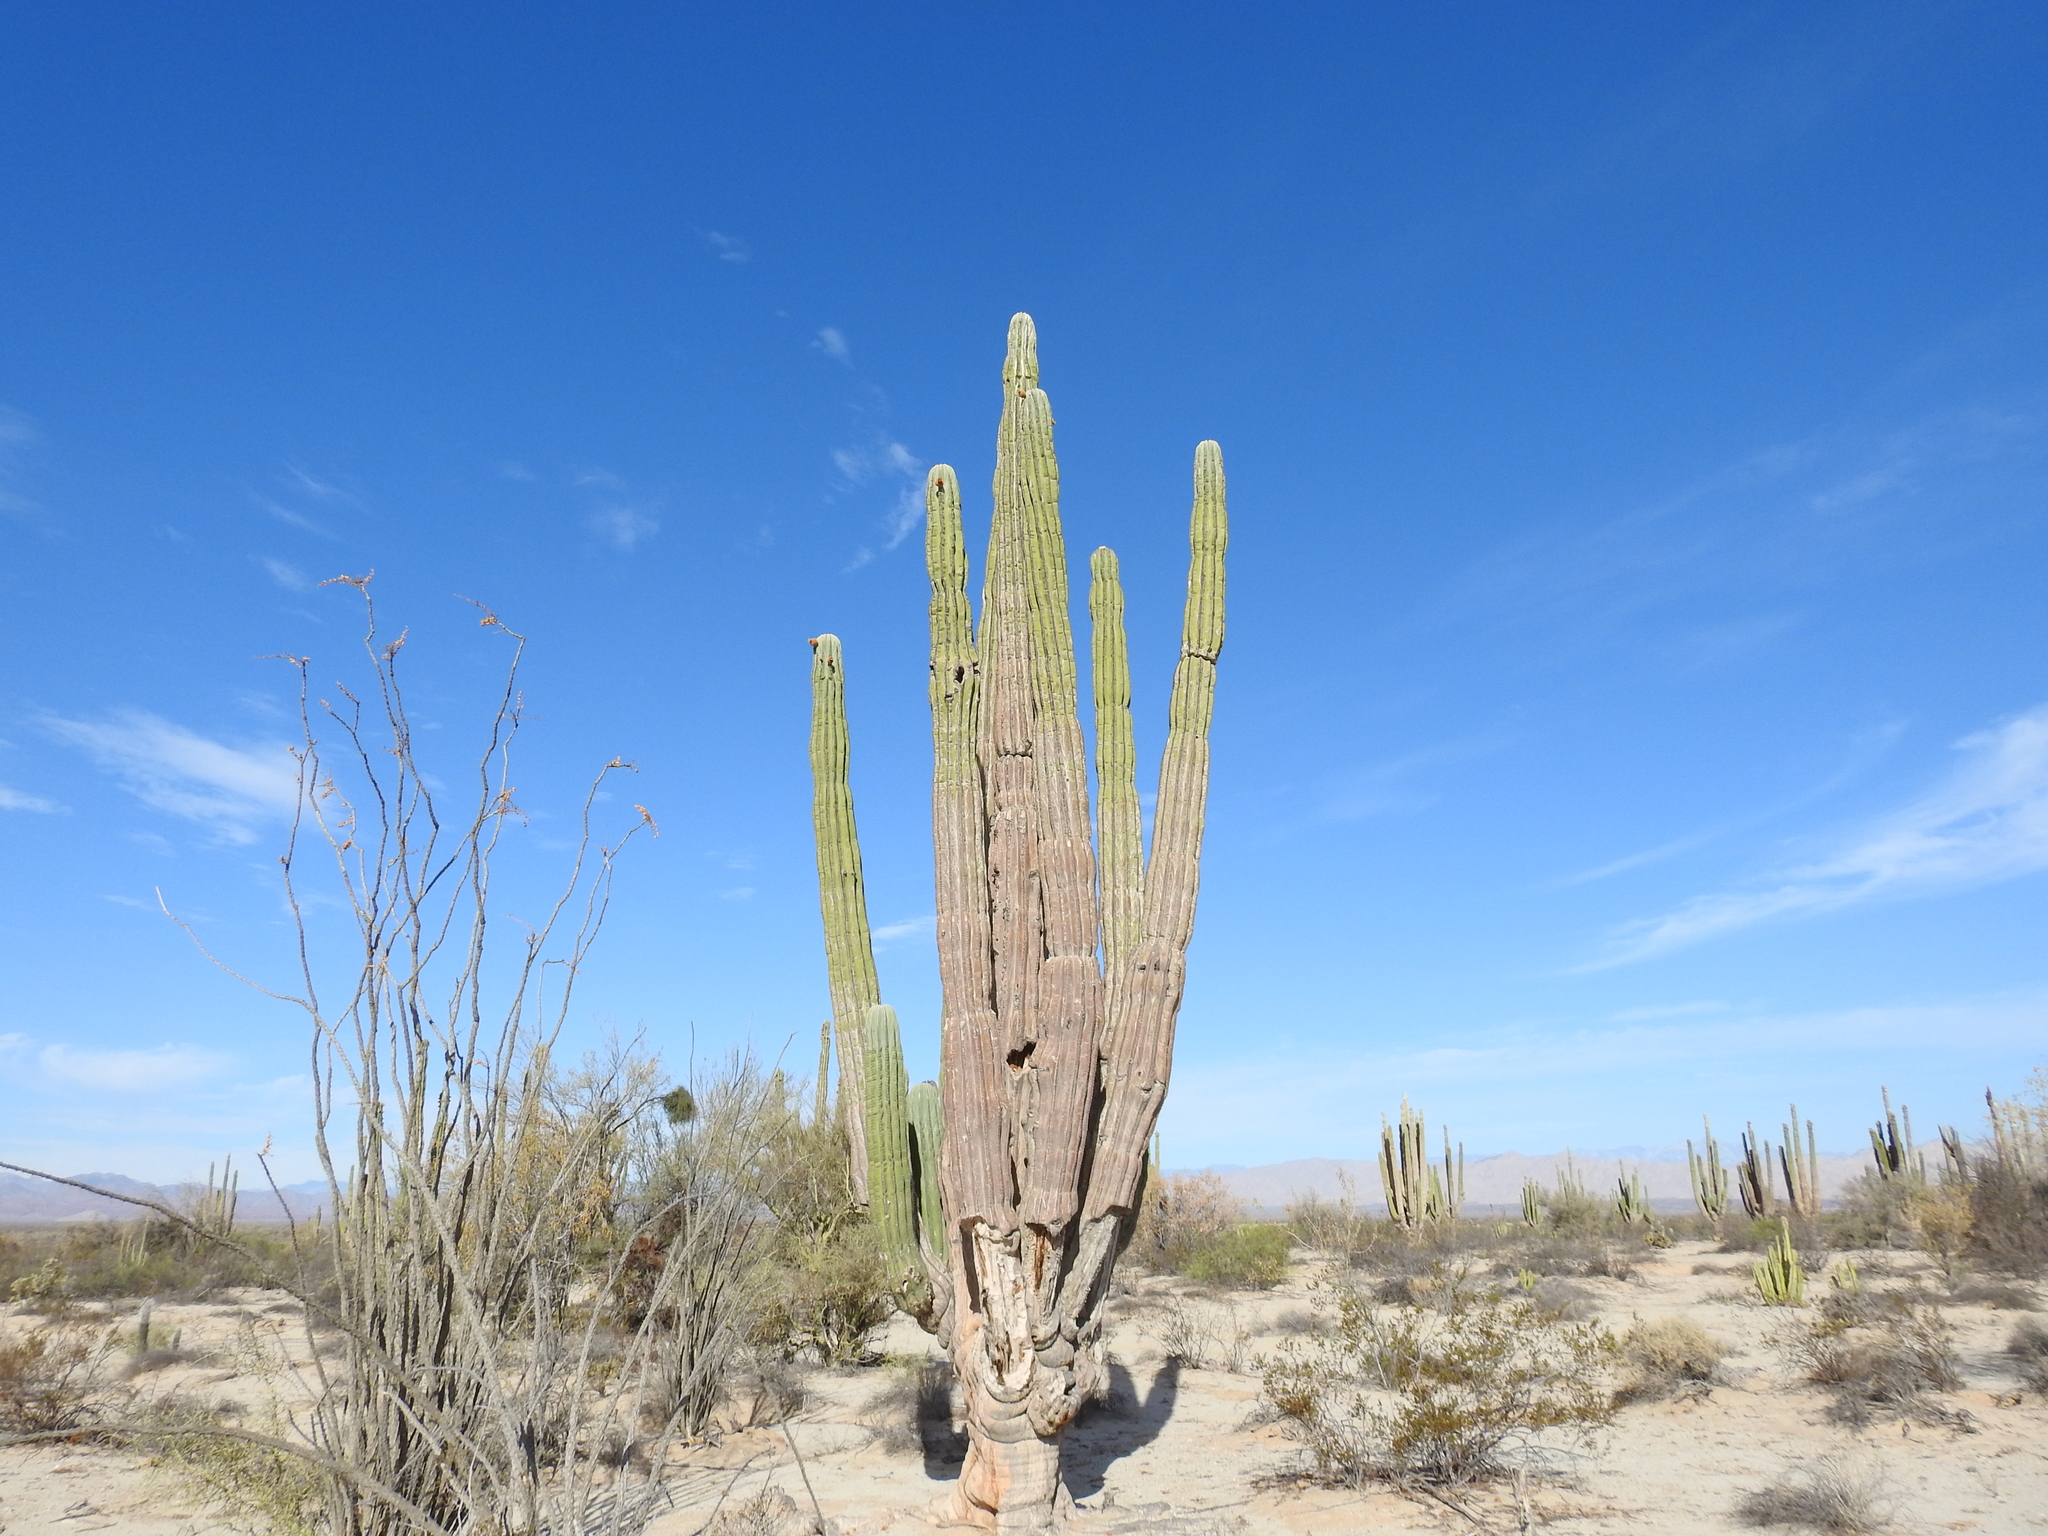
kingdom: Plantae
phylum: Tracheophyta
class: Magnoliopsida
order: Caryophyllales
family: Cactaceae
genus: Pachycereus
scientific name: Pachycereus pringlei
